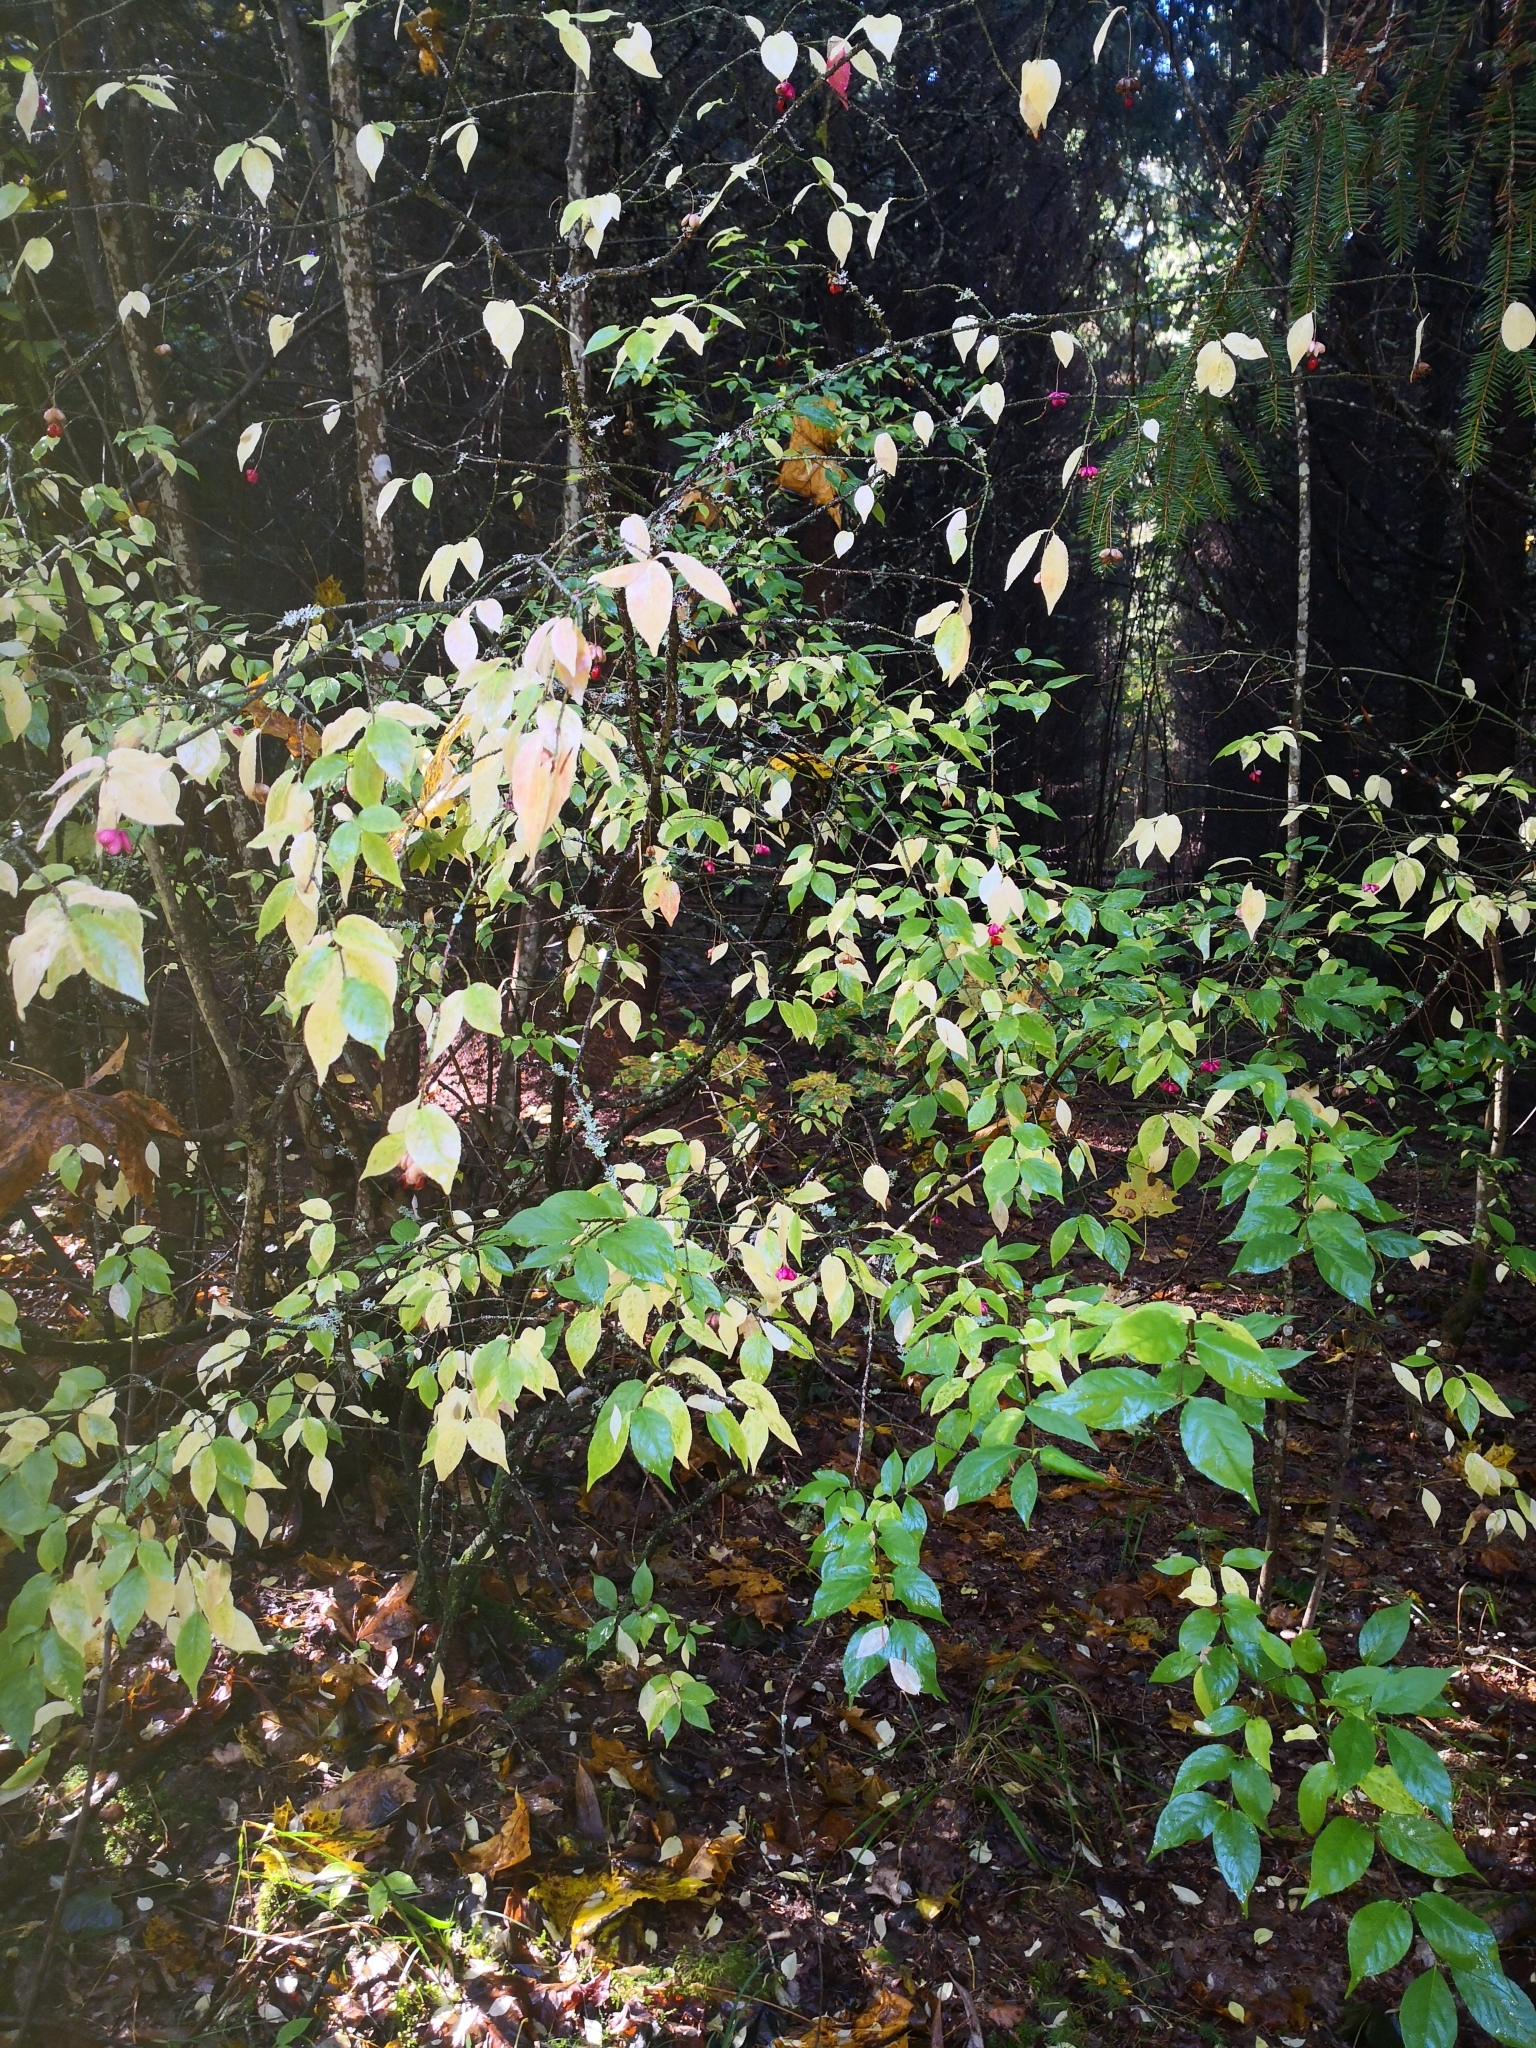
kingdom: Plantae
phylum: Tracheophyta
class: Magnoliopsida
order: Celastrales
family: Celastraceae
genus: Euonymus
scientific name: Euonymus verrucosus
